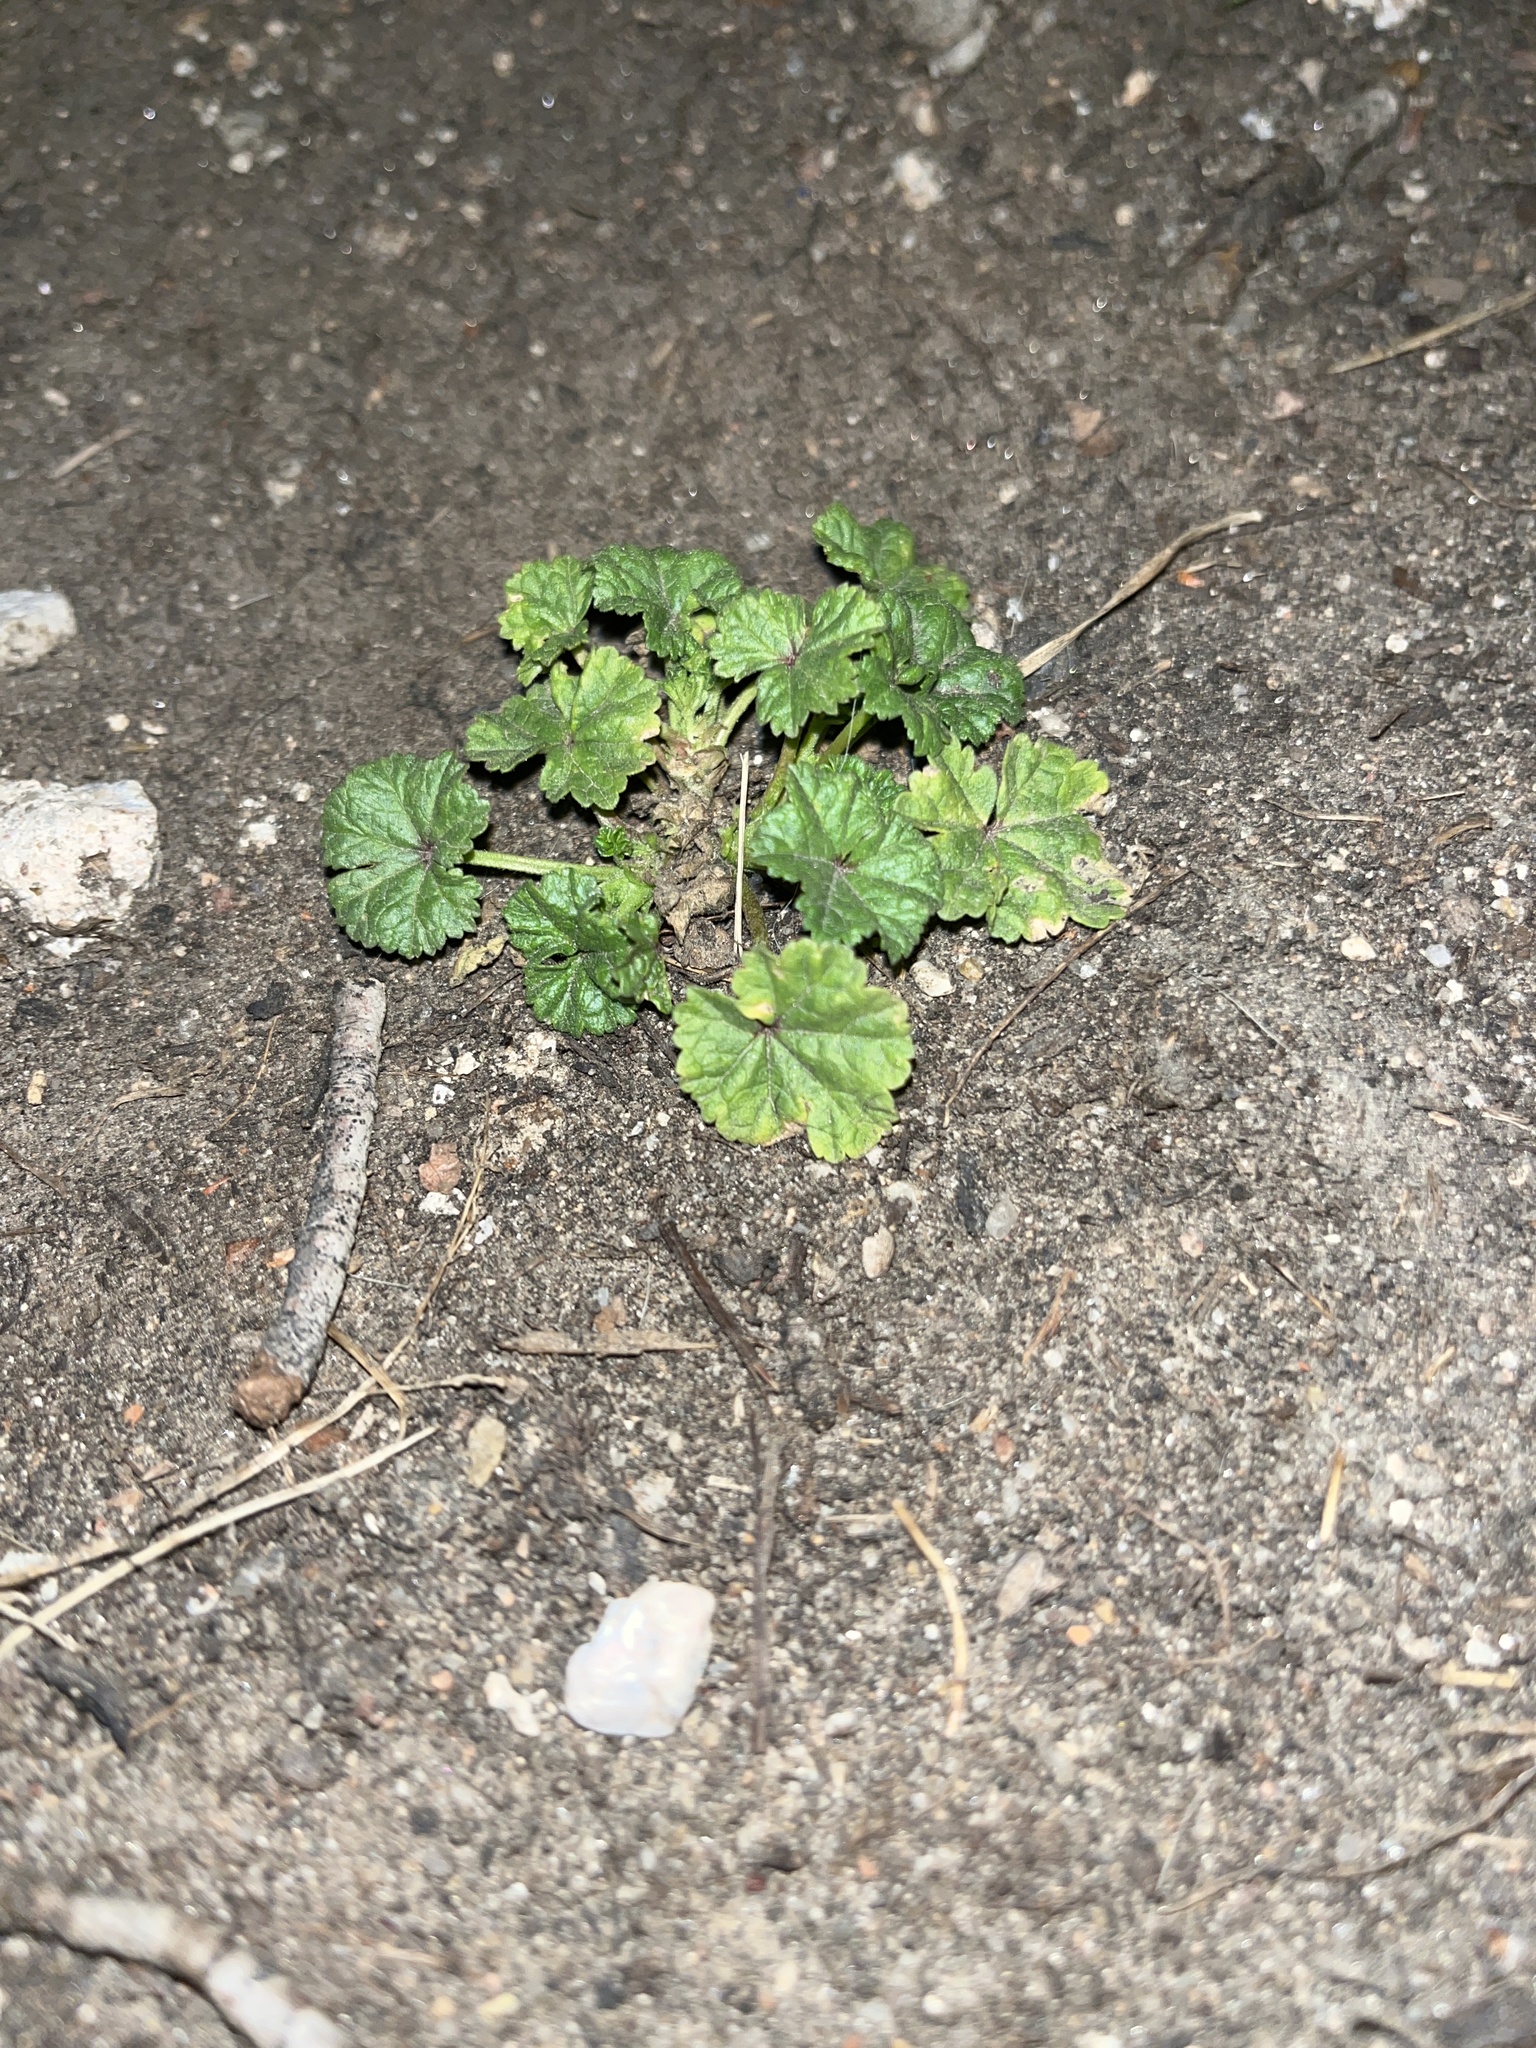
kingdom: Plantae
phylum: Tracheophyta
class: Magnoliopsida
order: Malvales
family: Malvaceae
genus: Malva
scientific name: Malva neglecta
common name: Common mallow
